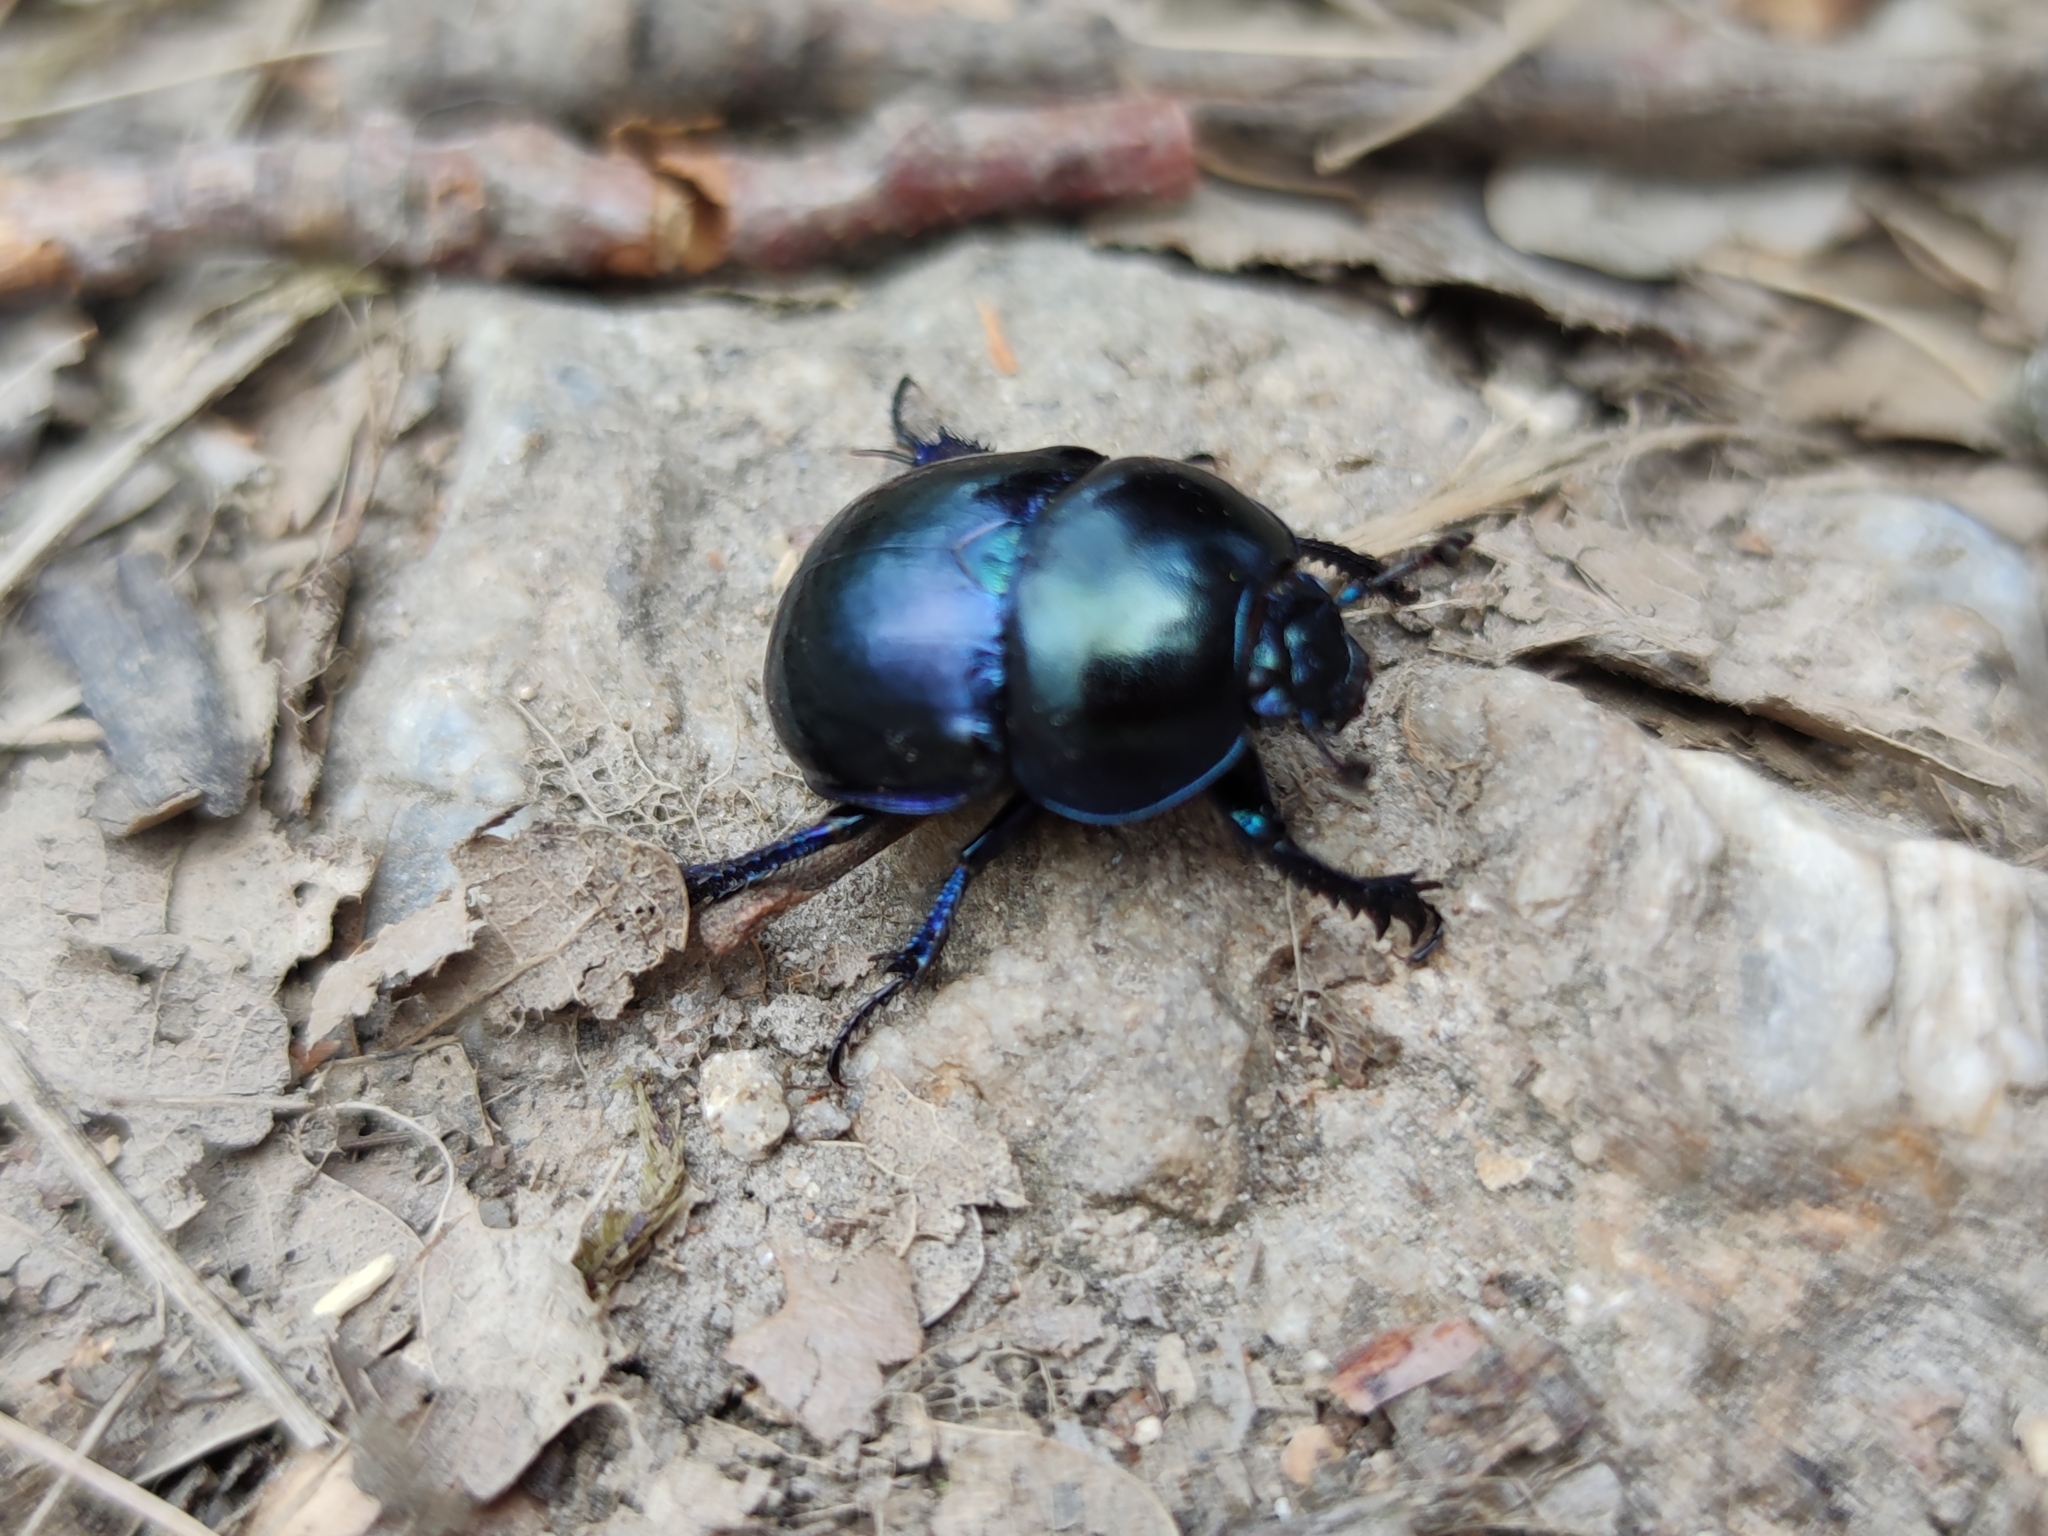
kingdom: Animalia
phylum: Arthropoda
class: Insecta
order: Coleoptera
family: Geotrupidae
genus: Trypocopris
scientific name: Trypocopris vernalis
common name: Spring dumbledor
